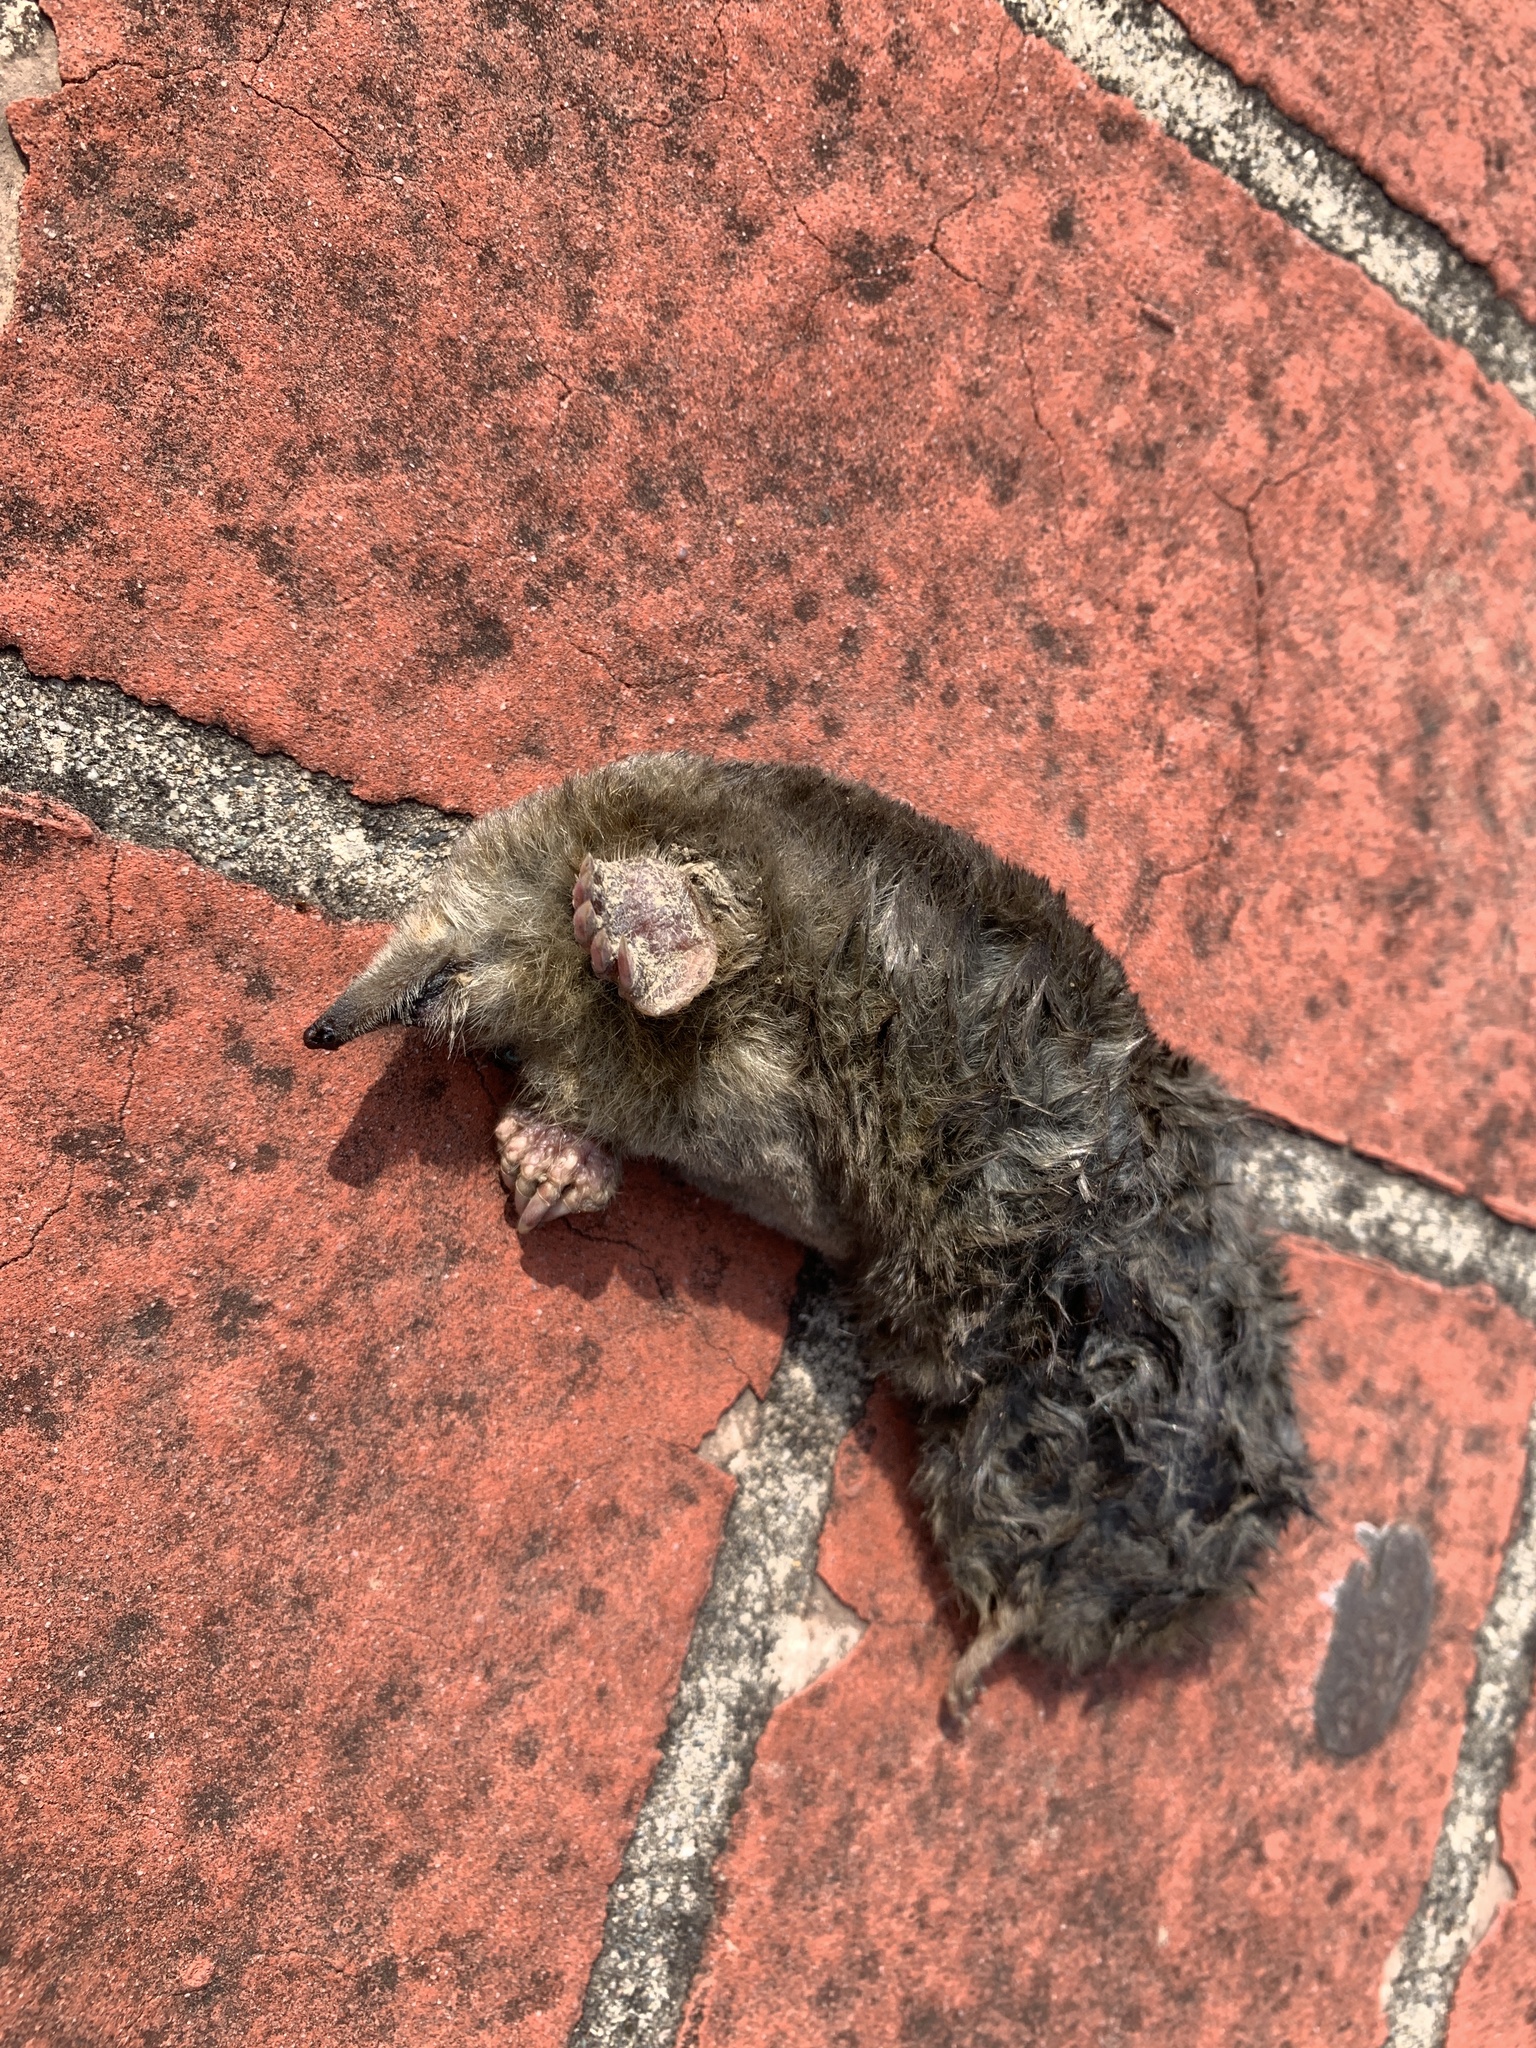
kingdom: Animalia
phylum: Chordata
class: Mammalia
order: Soricomorpha
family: Talpidae
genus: Mogera
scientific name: Mogera insularis
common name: Insular mole
